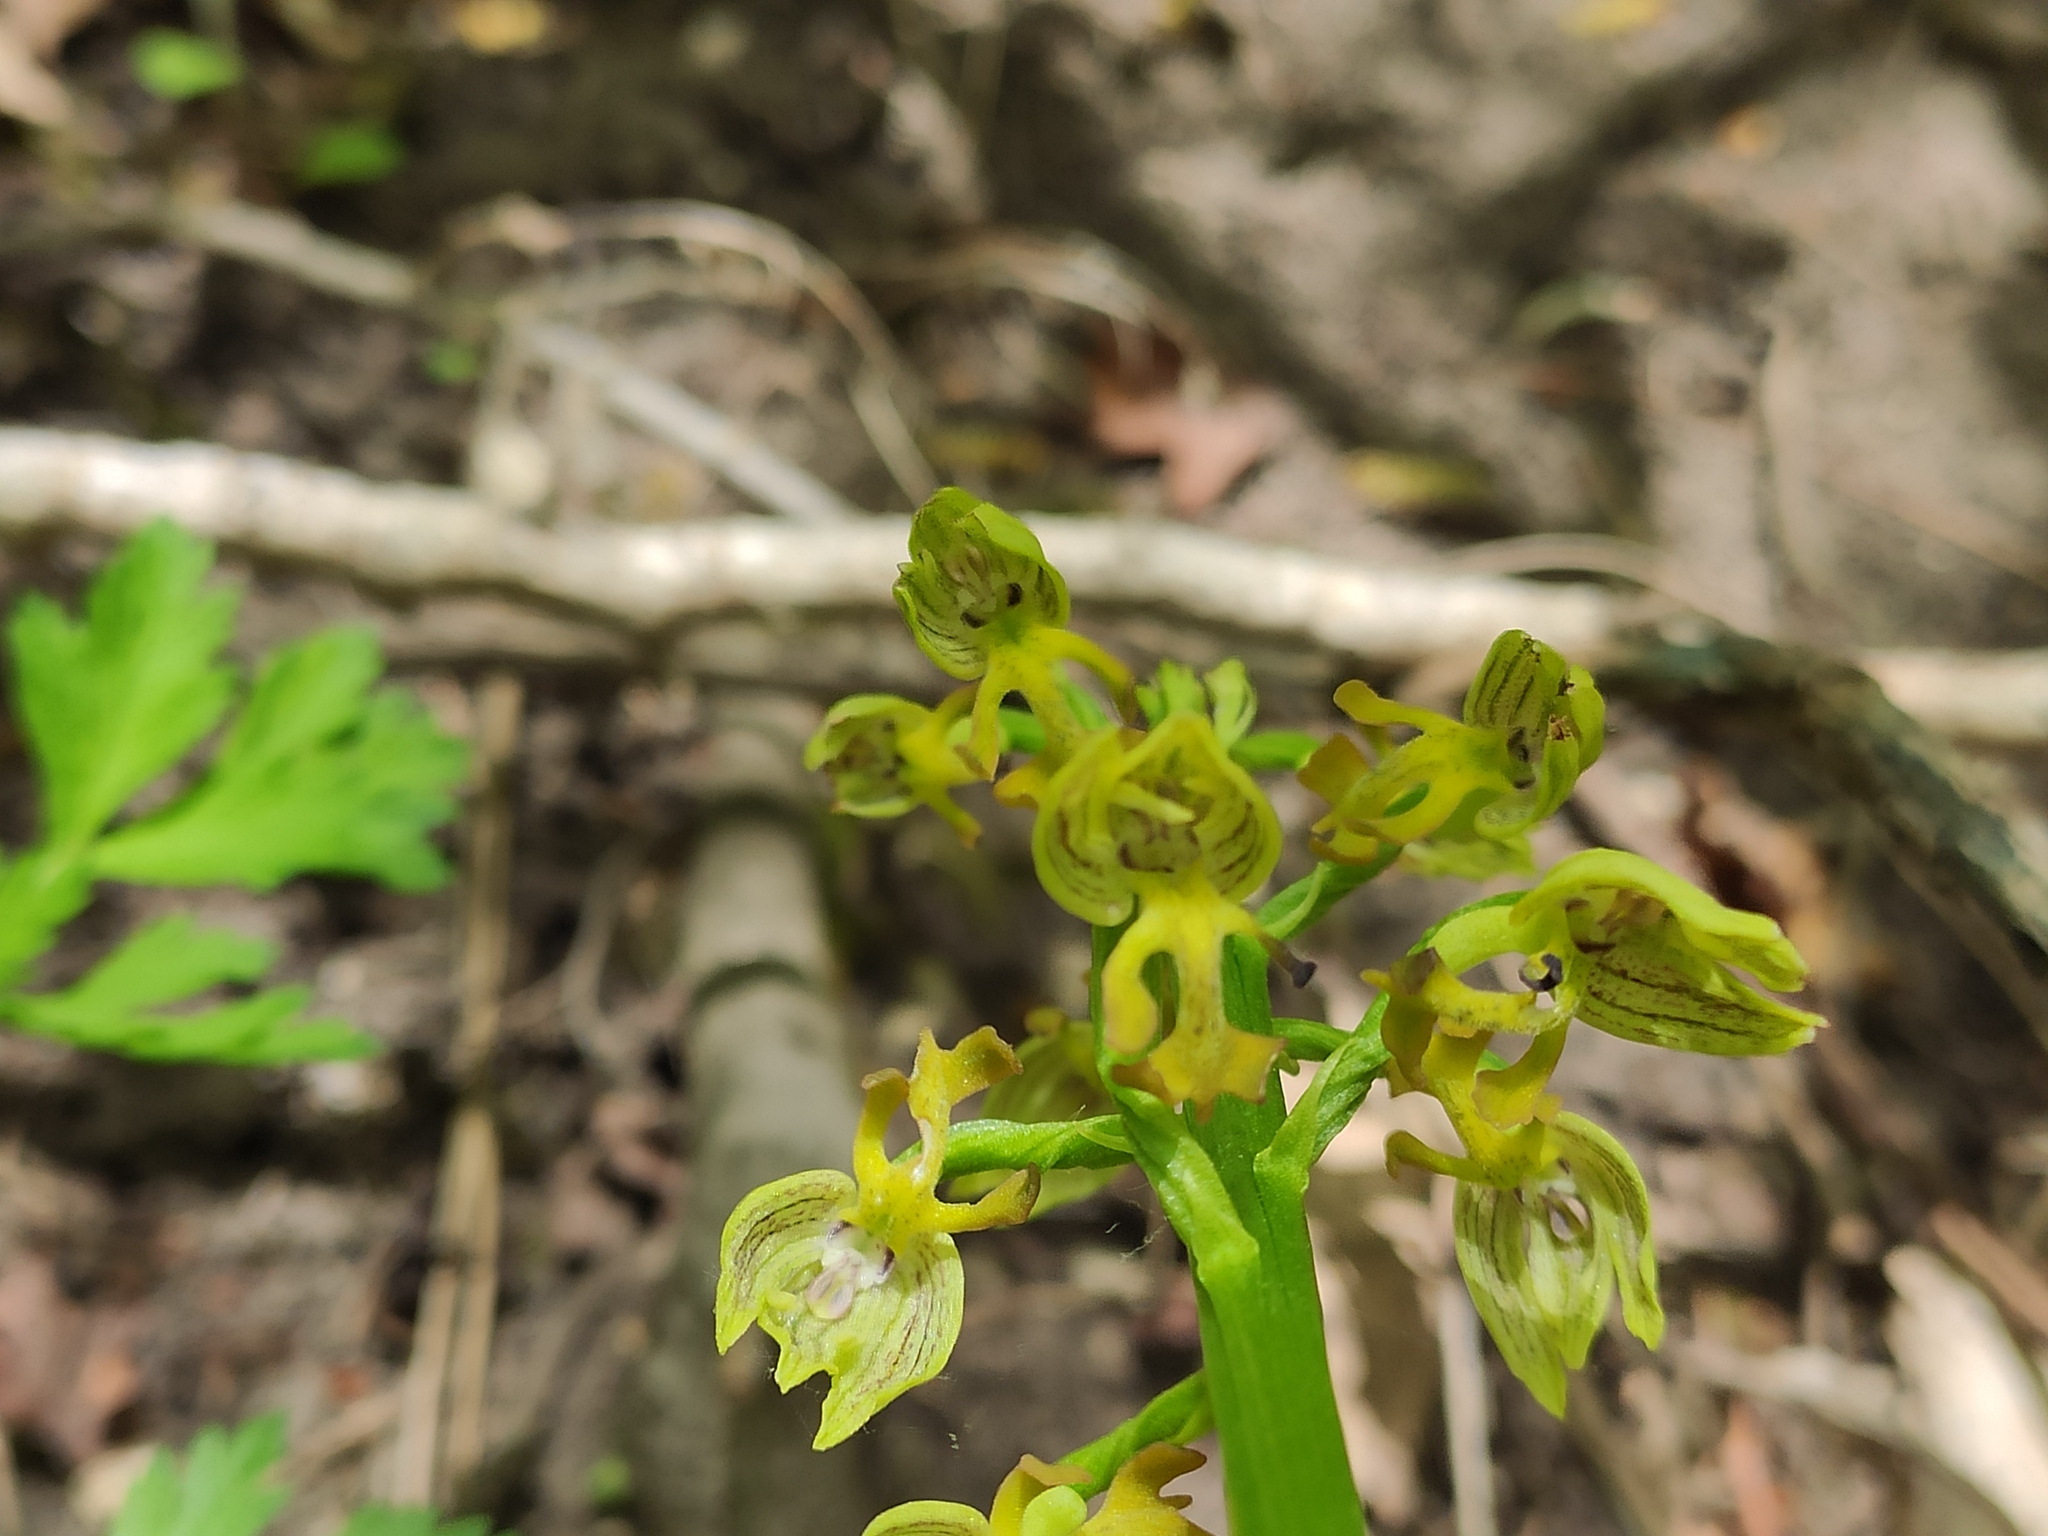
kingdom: Plantae
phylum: Tracheophyta
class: Liliopsida
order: Asparagales
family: Orchidaceae
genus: Orchis
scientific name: Orchis punctulata
